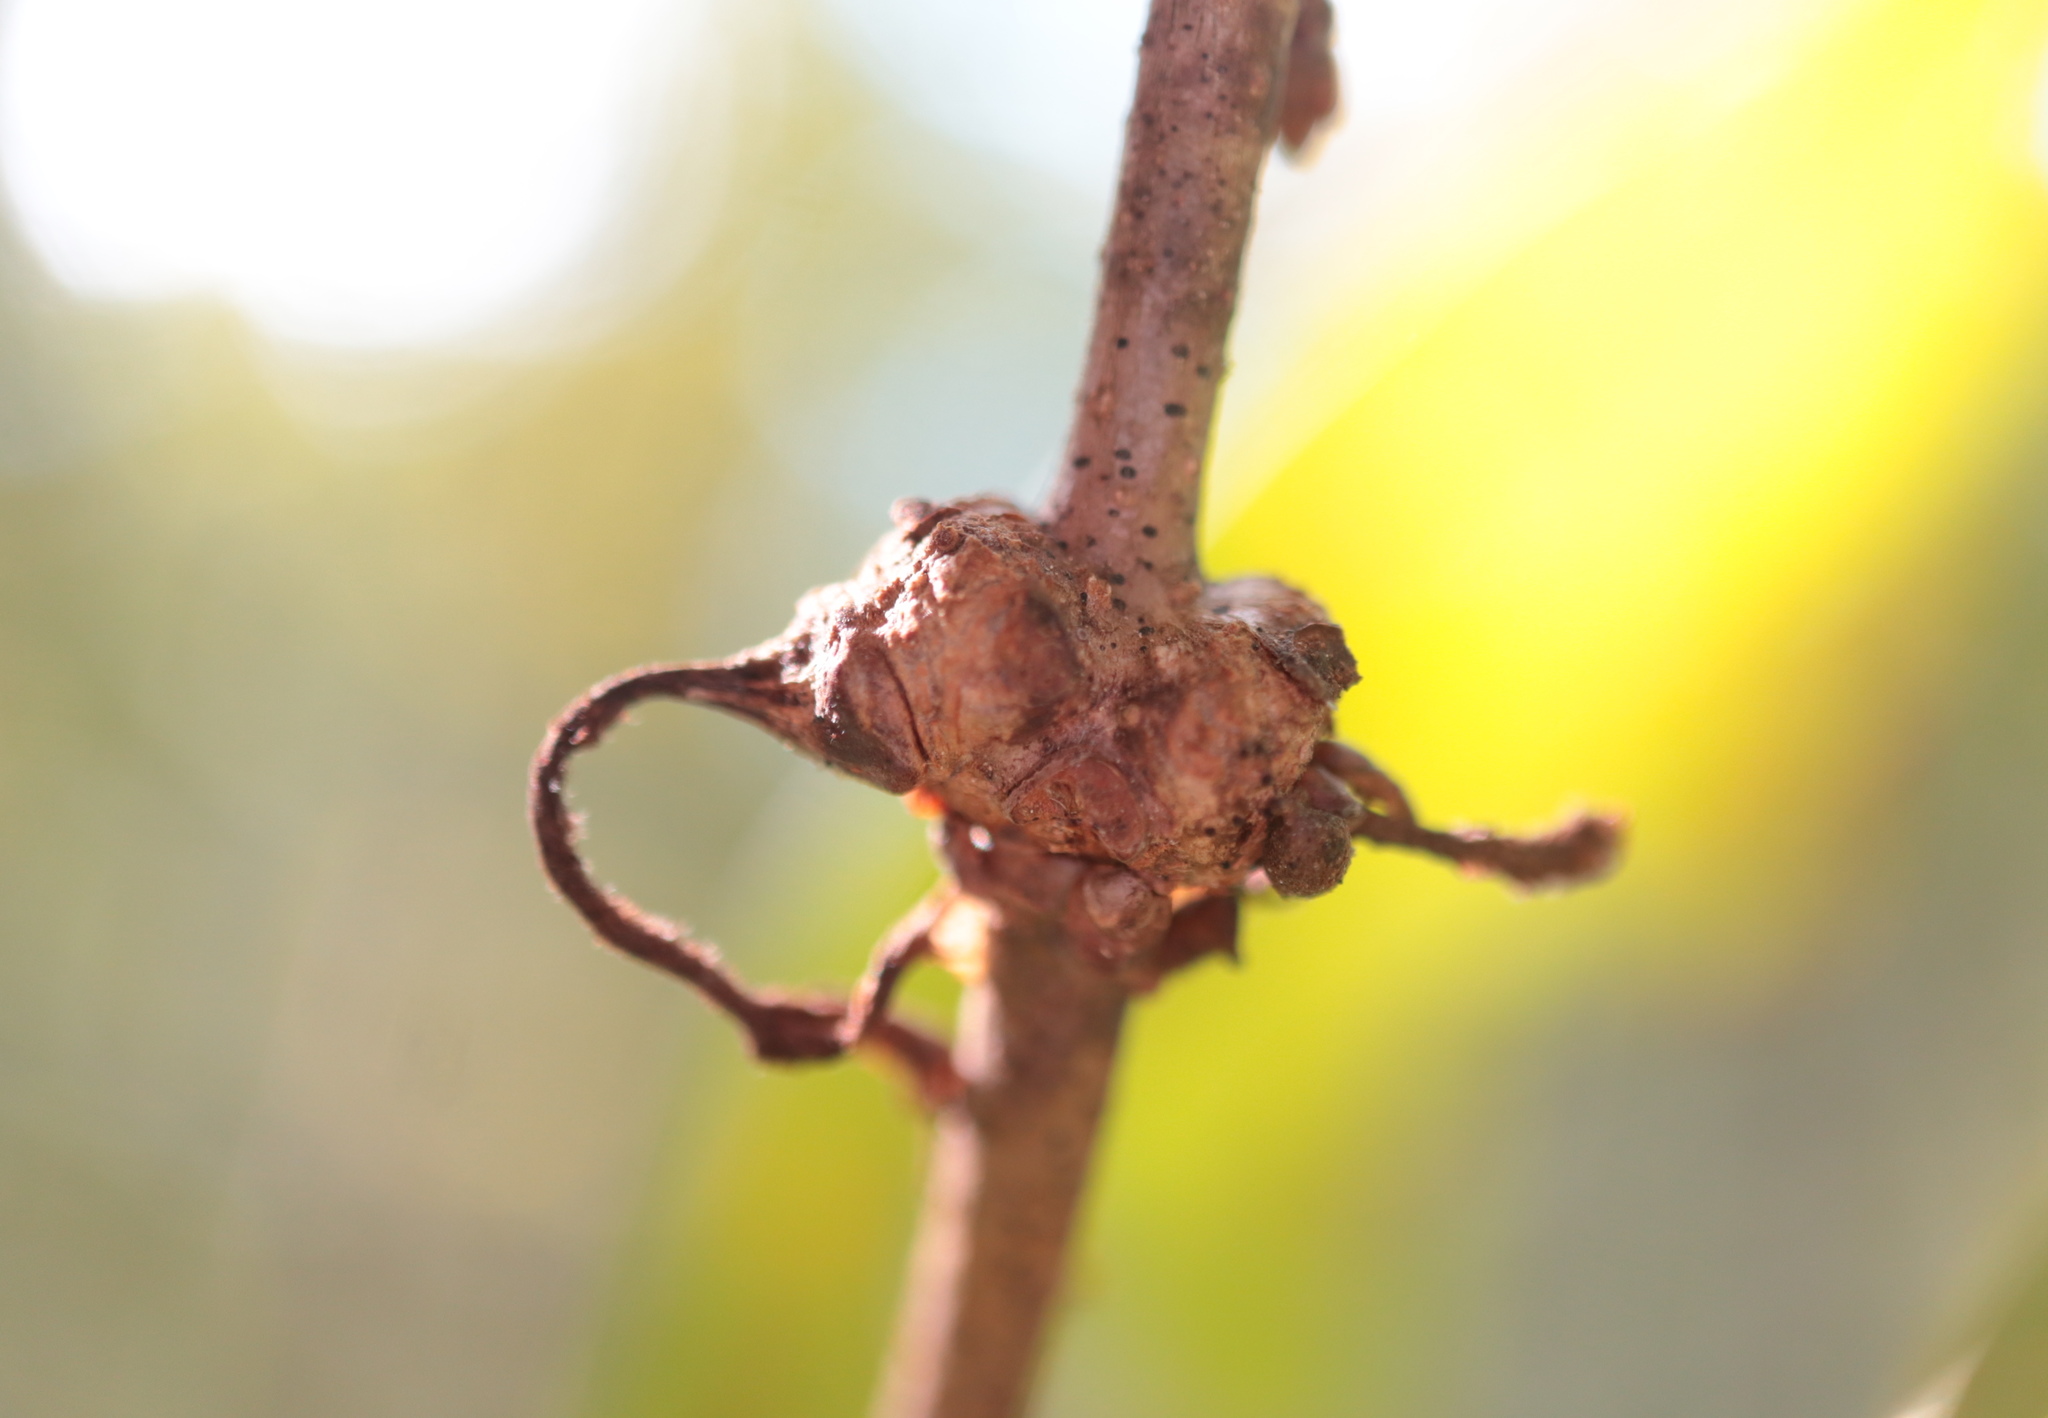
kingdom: Animalia
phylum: Arthropoda
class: Insecta
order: Hymenoptera
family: Cynipidae
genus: Loxaulus
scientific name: Loxaulus
